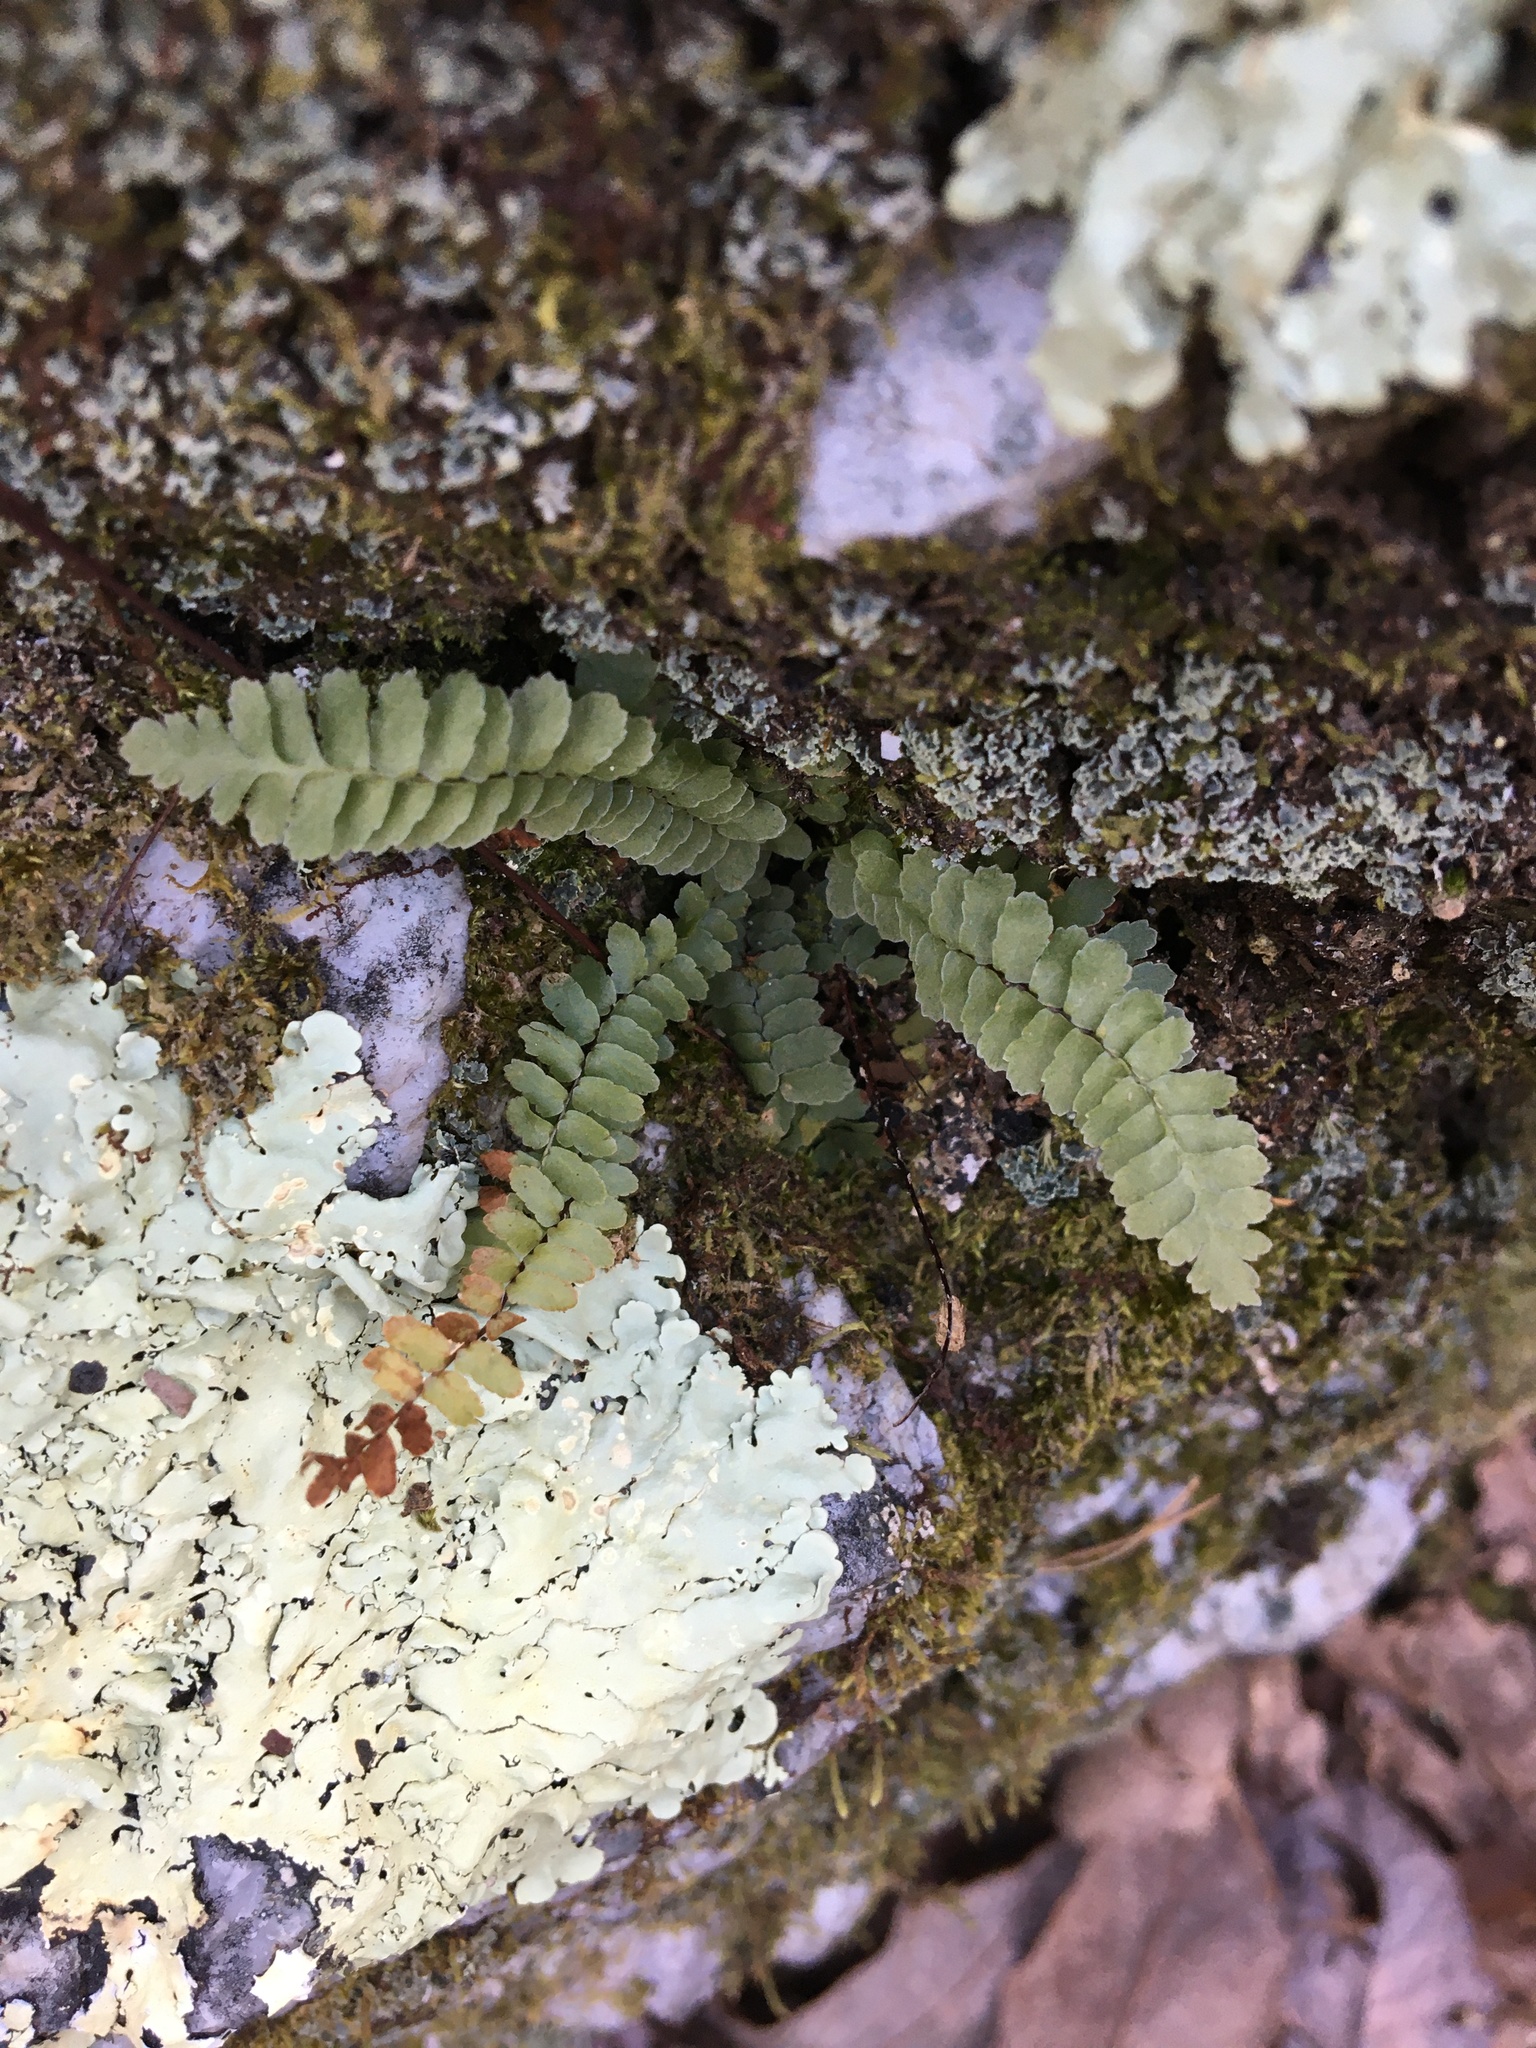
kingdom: Plantae
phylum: Tracheophyta
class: Polypodiopsida
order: Polypodiales
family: Aspleniaceae
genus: Asplenium
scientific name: Asplenium platyneuron
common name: Ebony spleenwort
